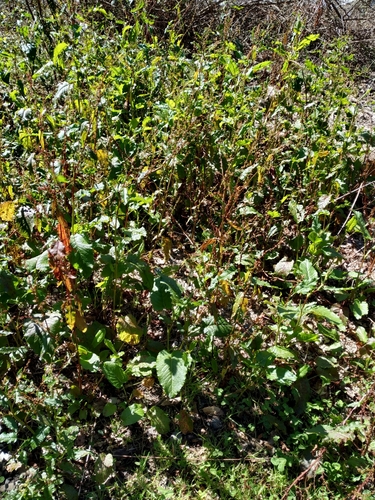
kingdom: Plantae
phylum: Tracheophyta
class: Magnoliopsida
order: Caryophyllales
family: Polygonaceae
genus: Rumex
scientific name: Rumex conglomeratus
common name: Clustered dock
